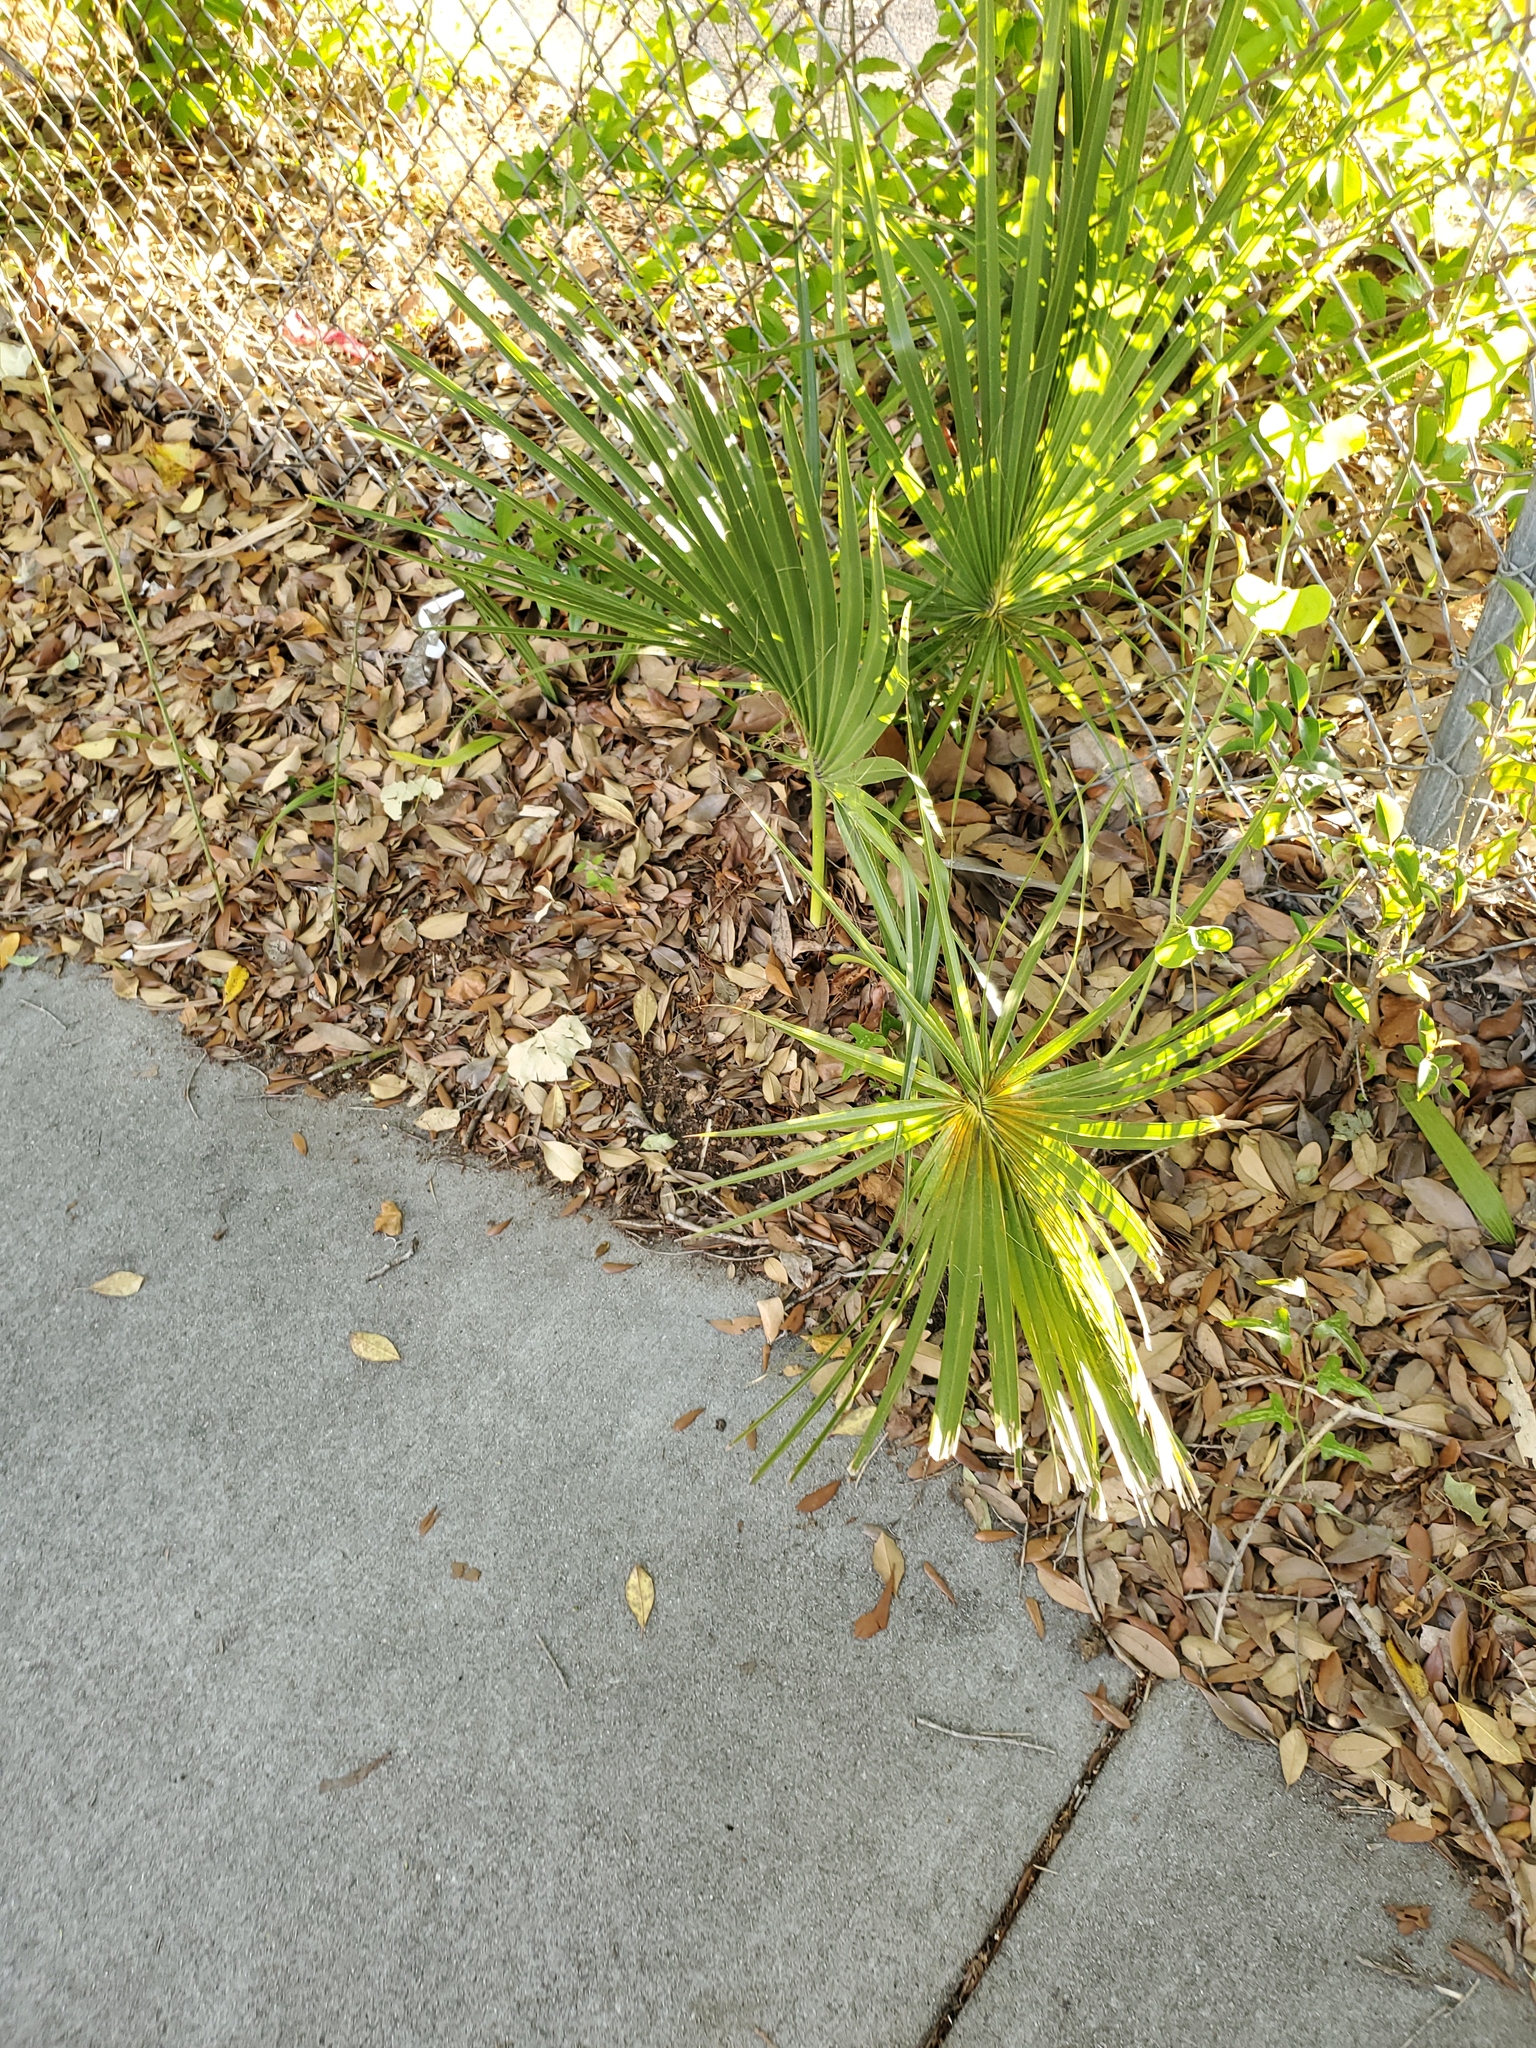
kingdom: Plantae
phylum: Tracheophyta
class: Liliopsida
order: Arecales
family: Arecaceae
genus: Sabal
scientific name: Sabal palmetto
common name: Blue palmetto
